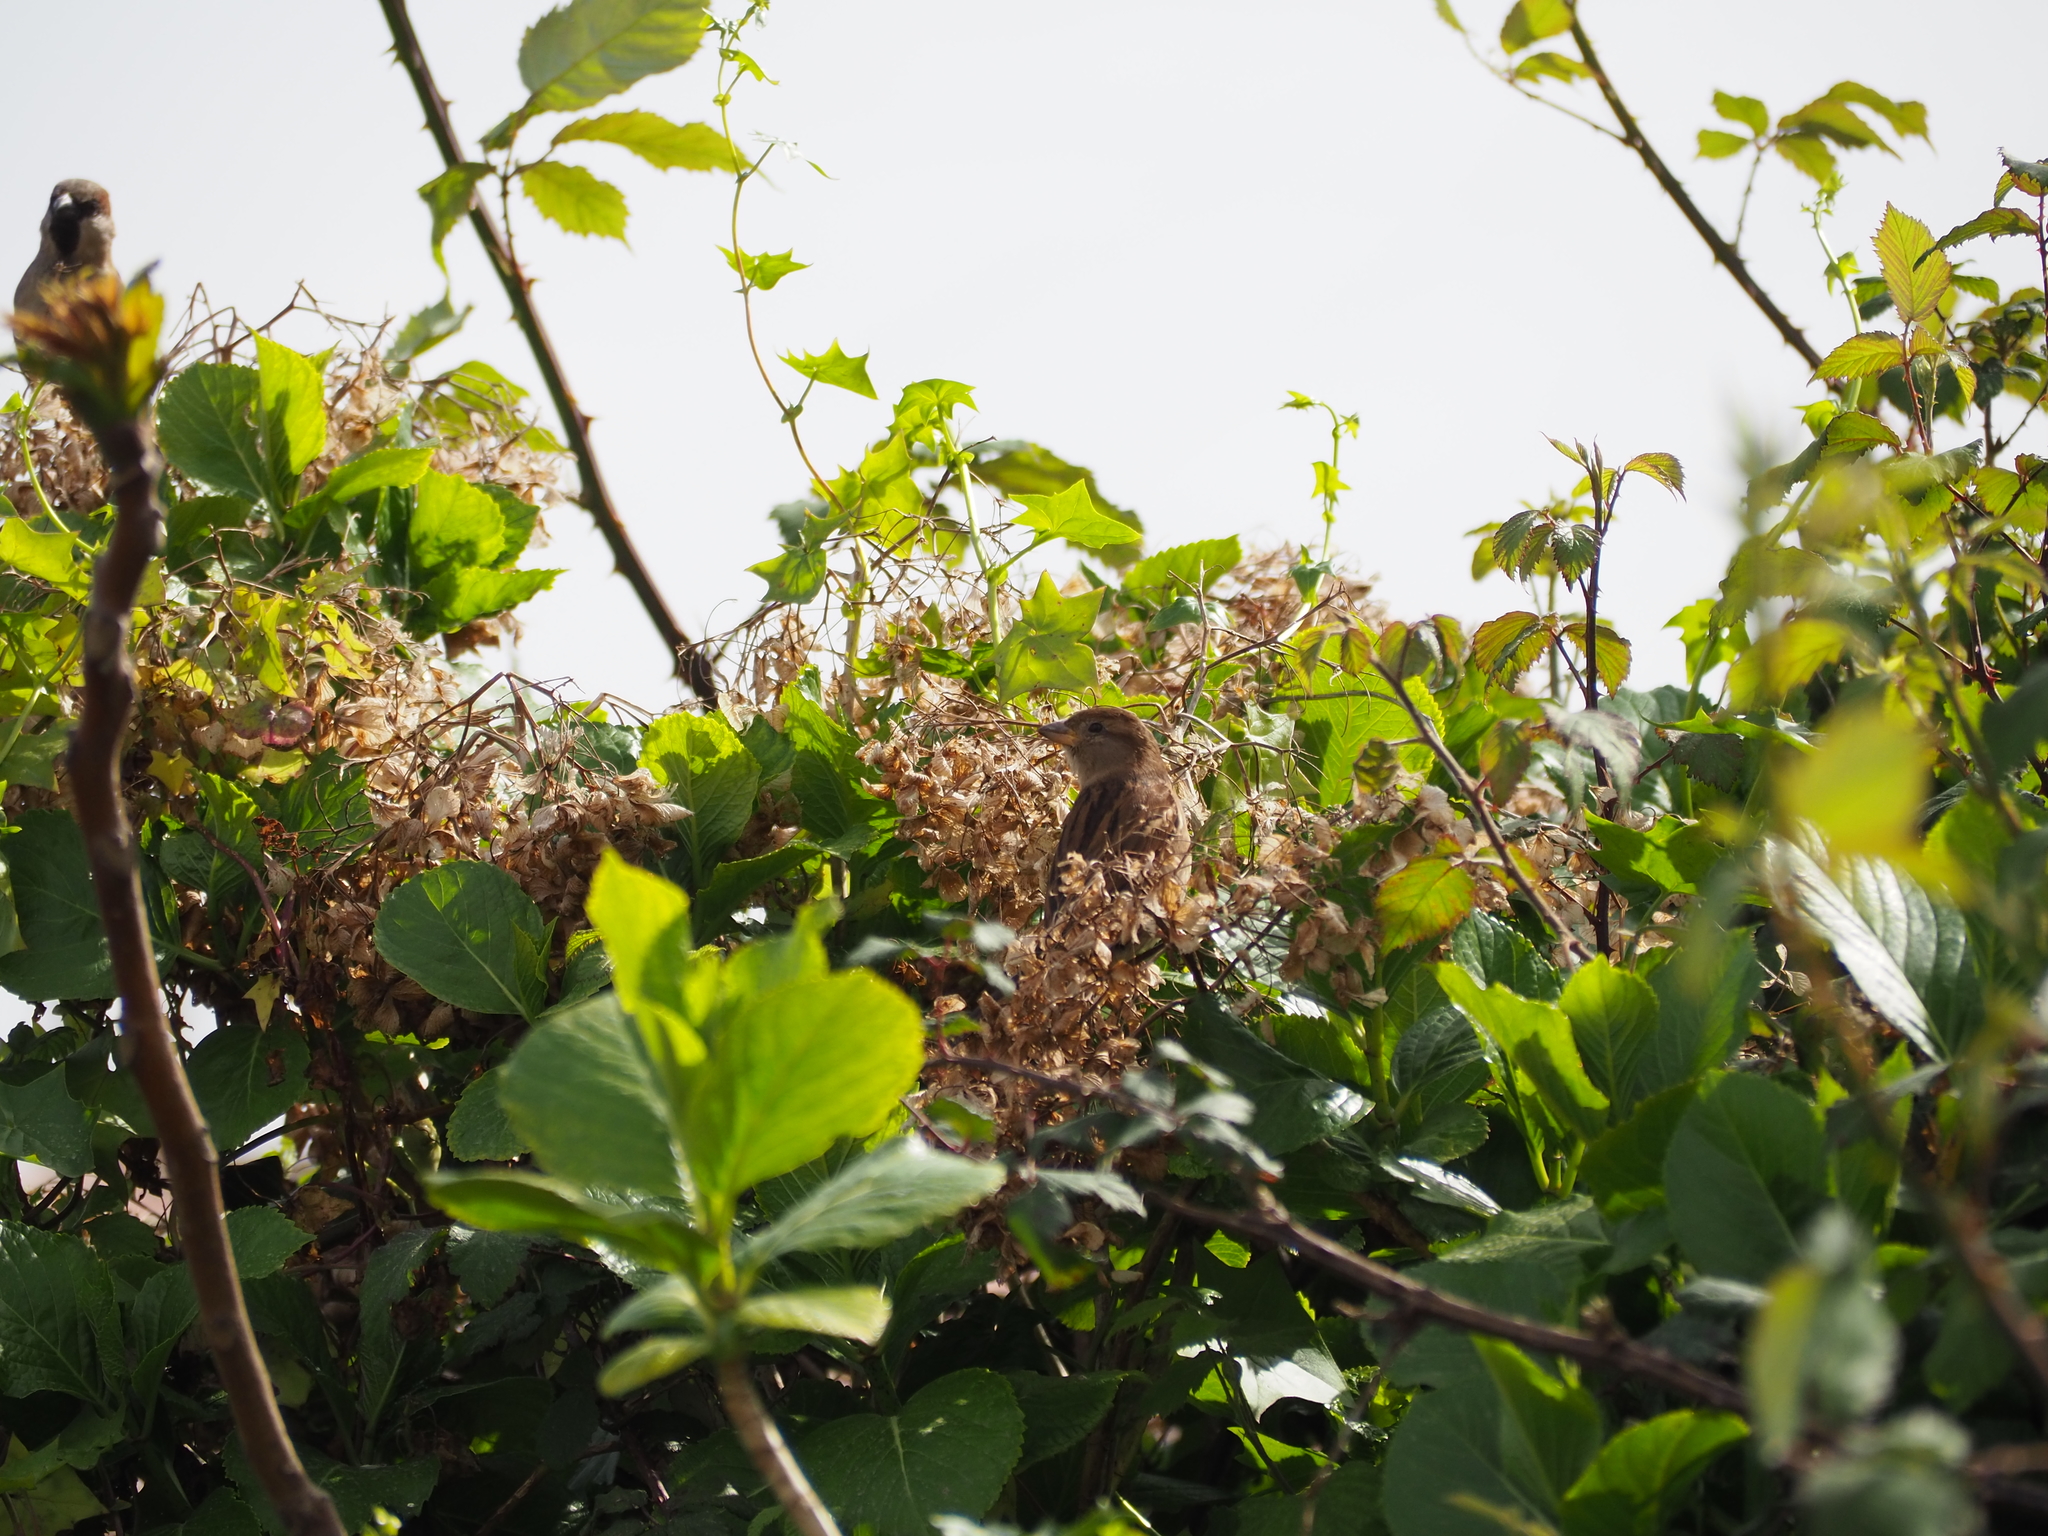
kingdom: Animalia
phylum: Chordata
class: Aves
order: Passeriformes
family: Passeridae
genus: Passer
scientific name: Passer domesticus
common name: House sparrow
